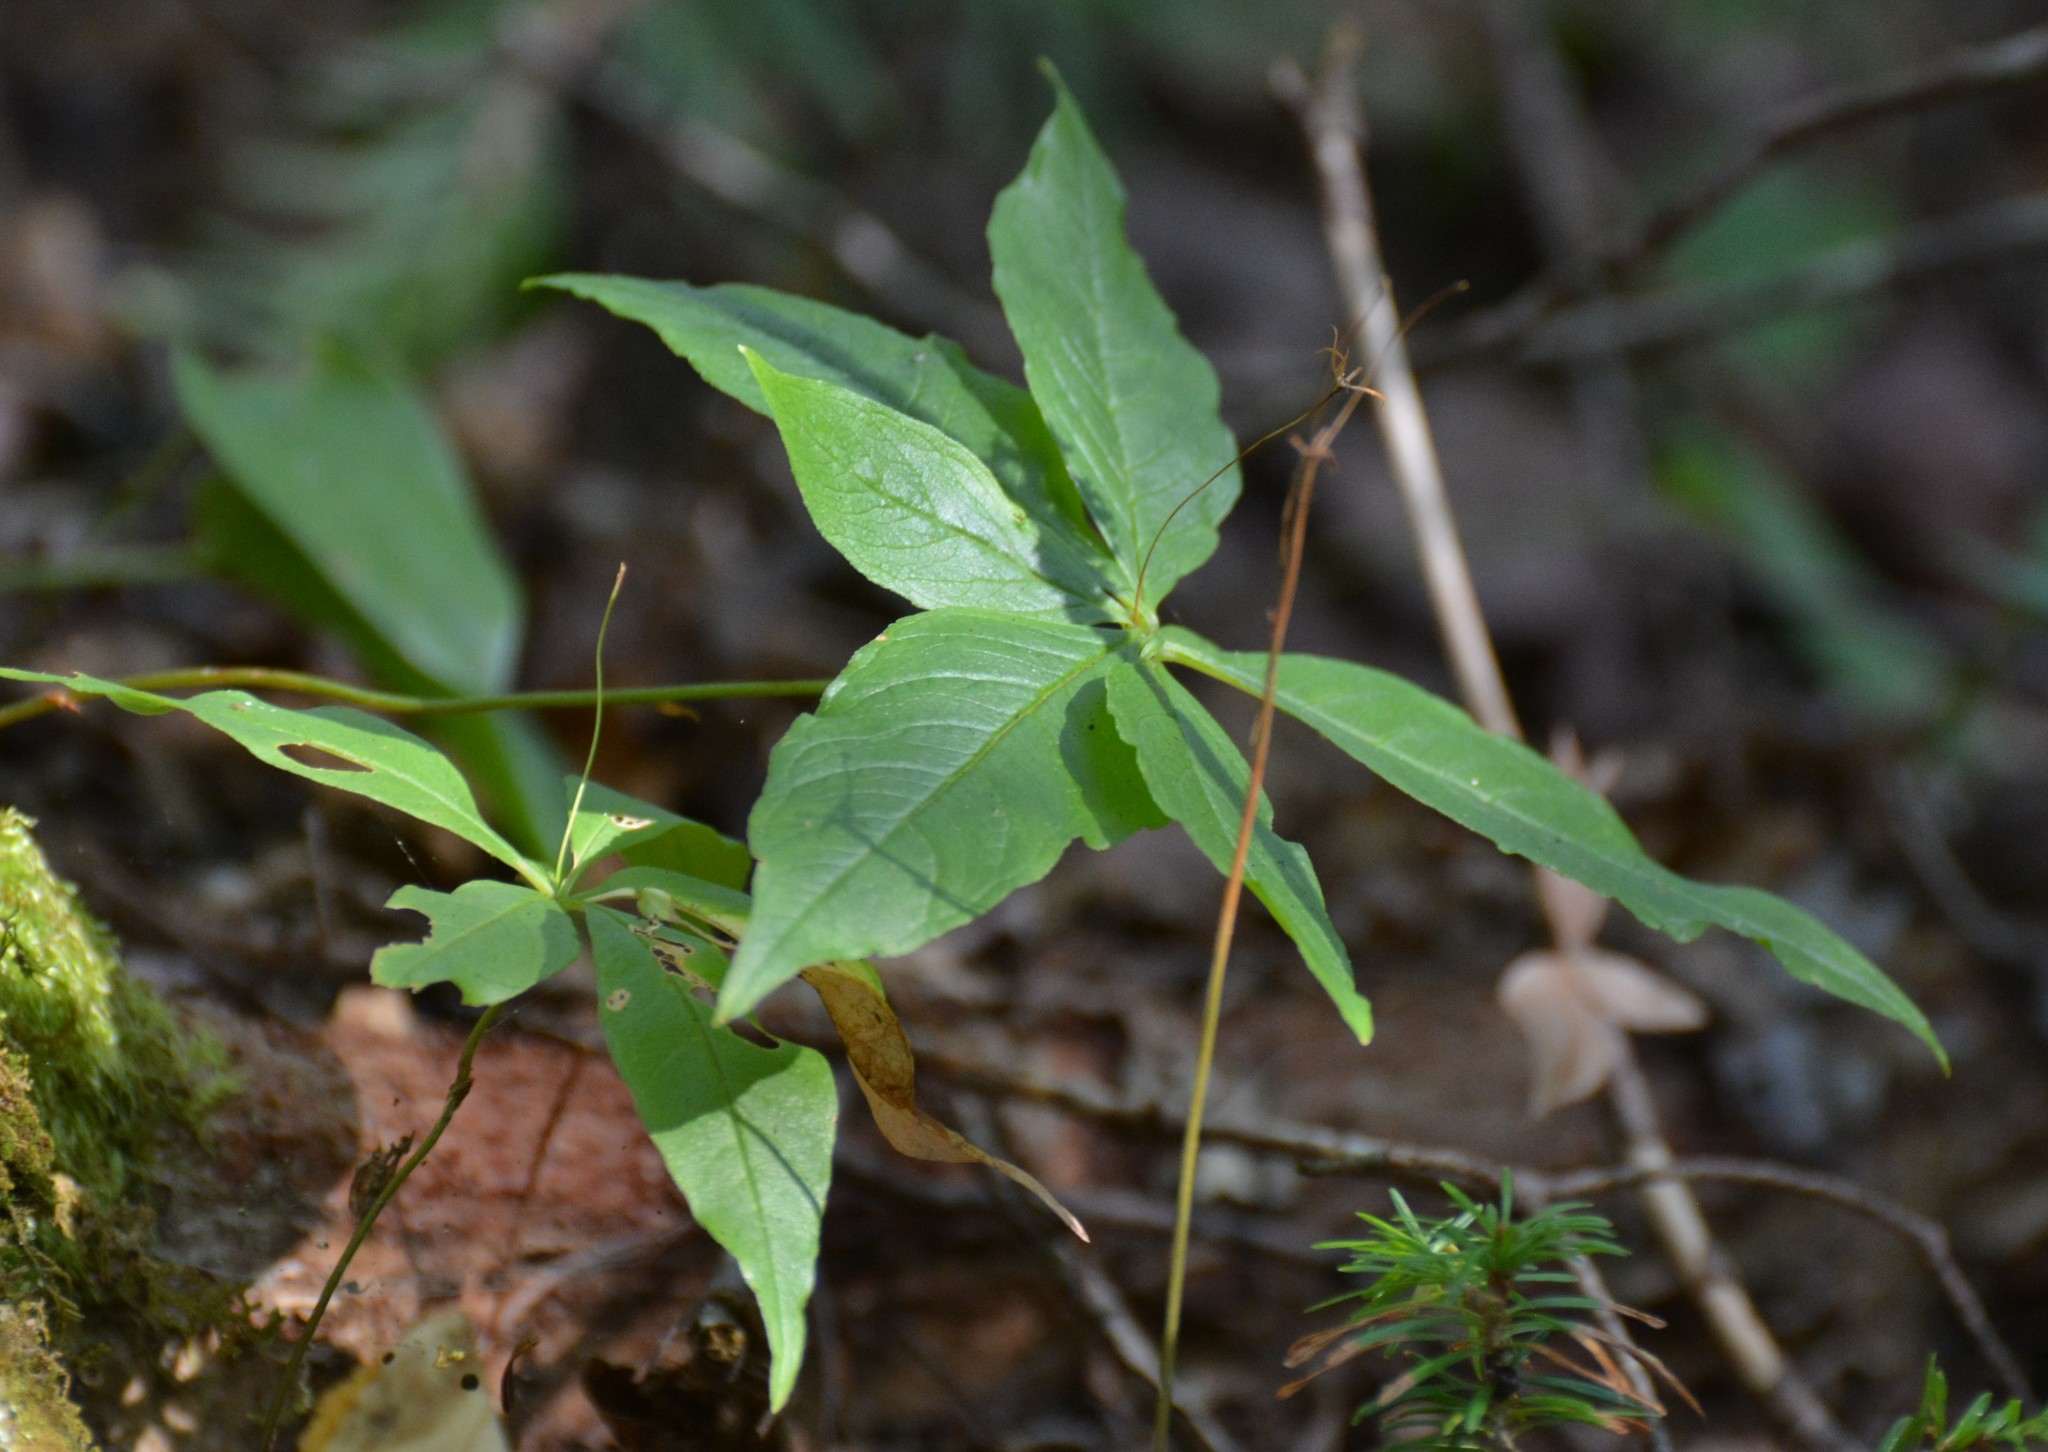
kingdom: Plantae
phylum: Tracheophyta
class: Magnoliopsida
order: Ericales
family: Primulaceae
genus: Lysimachia
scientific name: Lysimachia borealis
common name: American starflower
